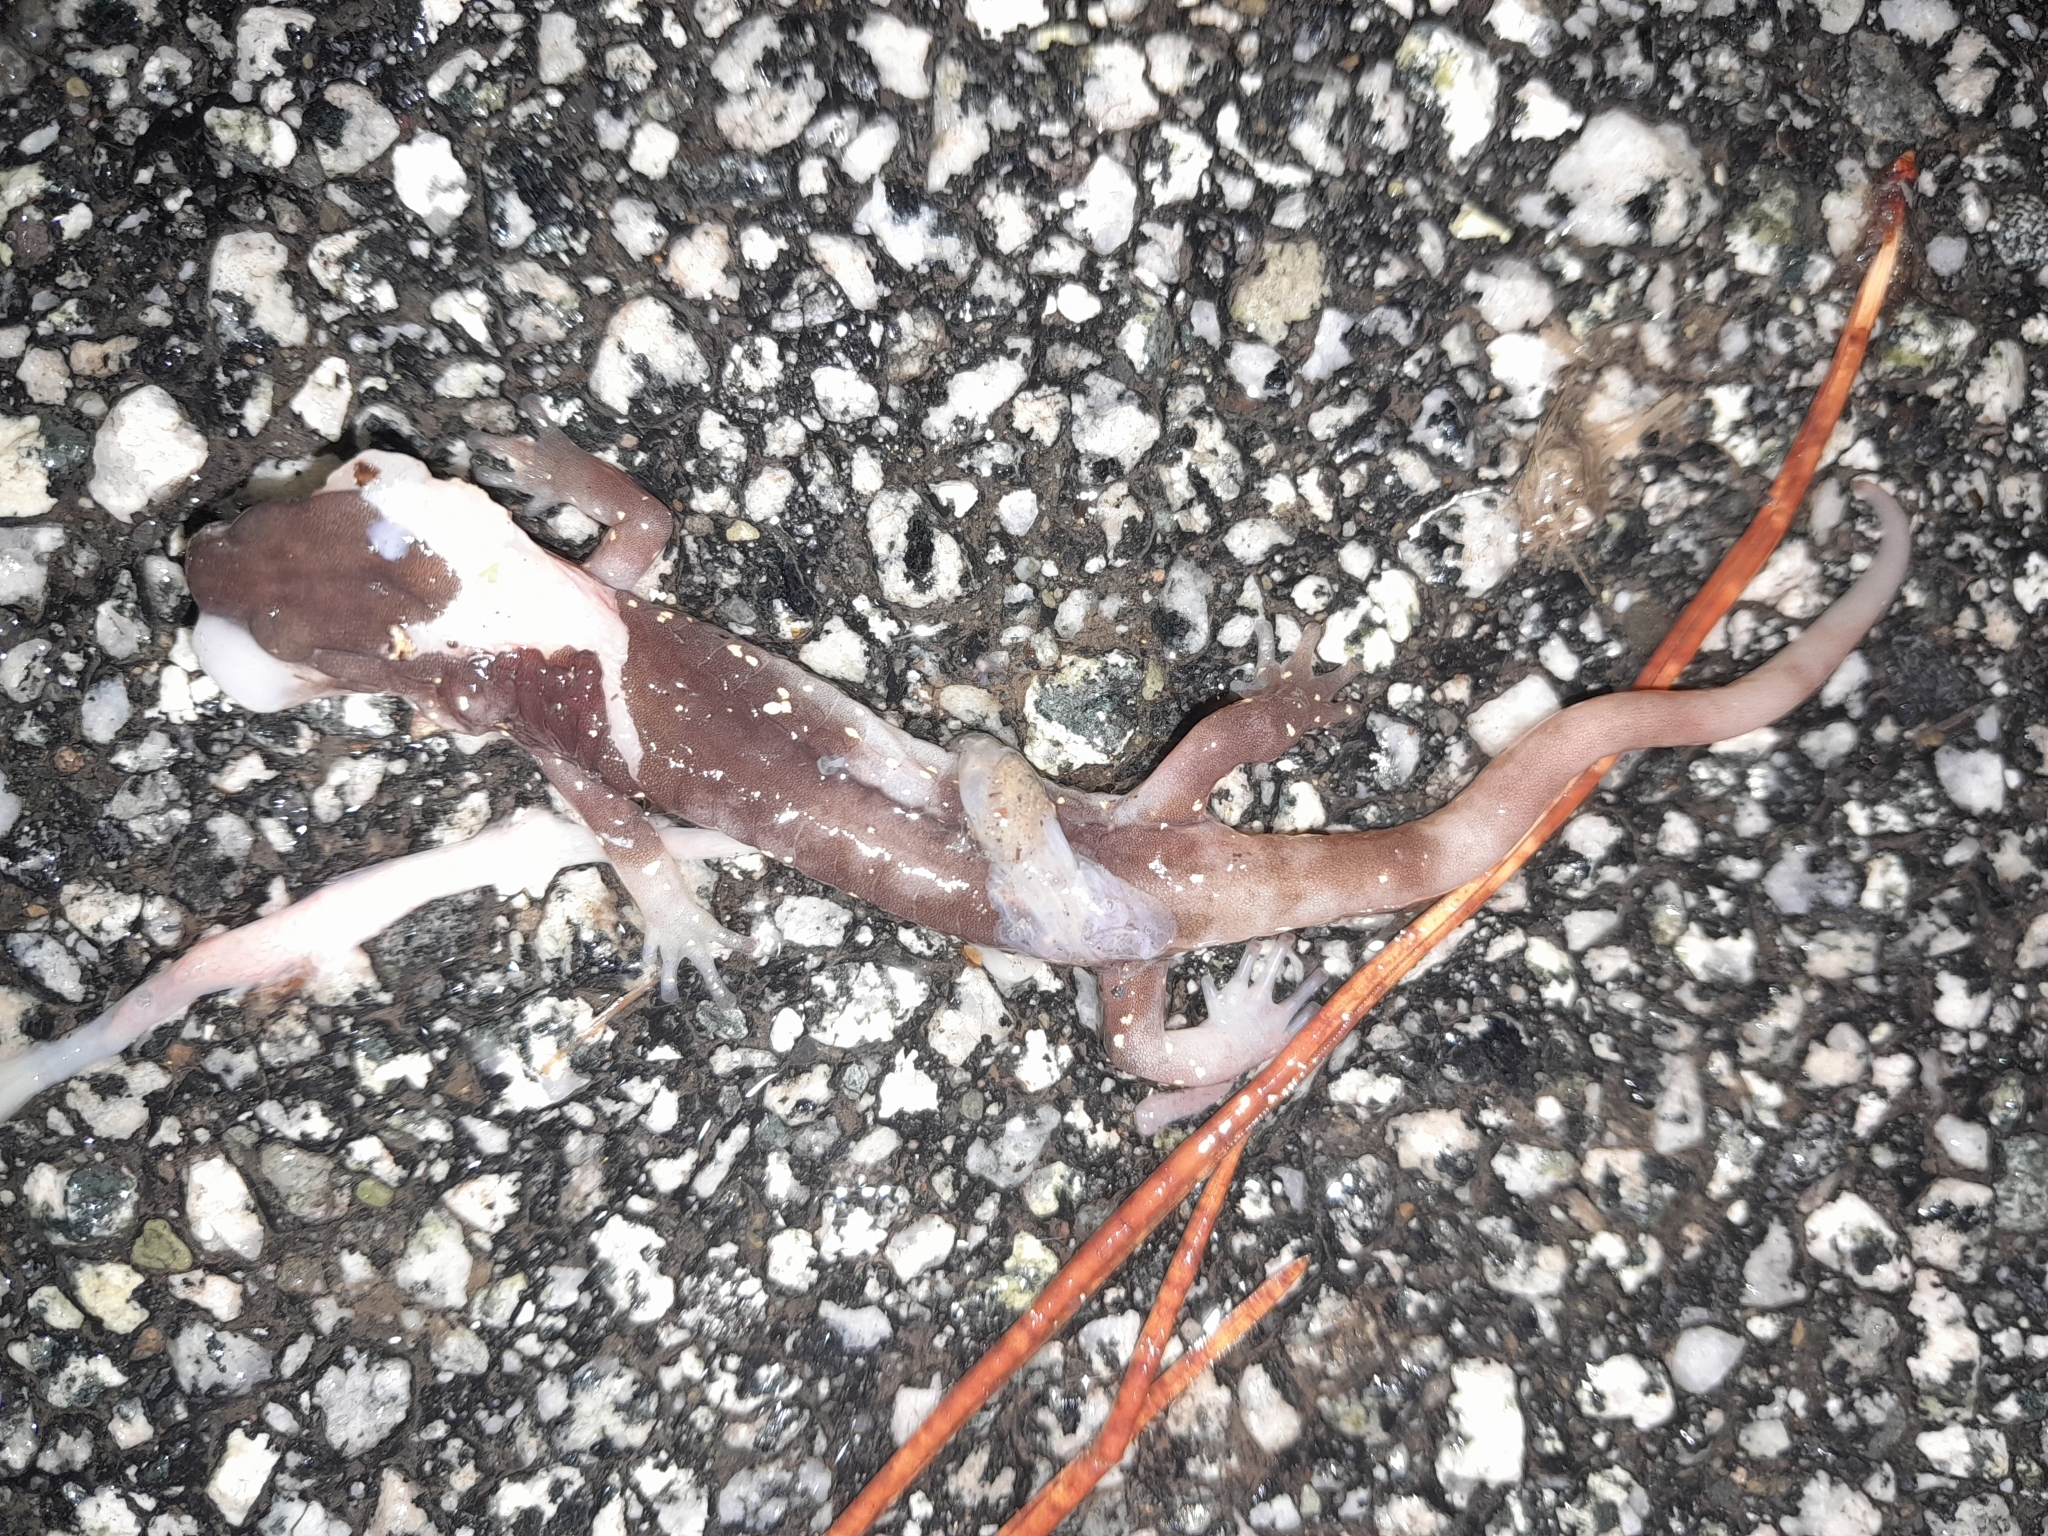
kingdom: Animalia
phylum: Chordata
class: Amphibia
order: Caudata
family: Plethodontidae
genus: Aneides
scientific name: Aneides lugubris
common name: Arboreal salamander
